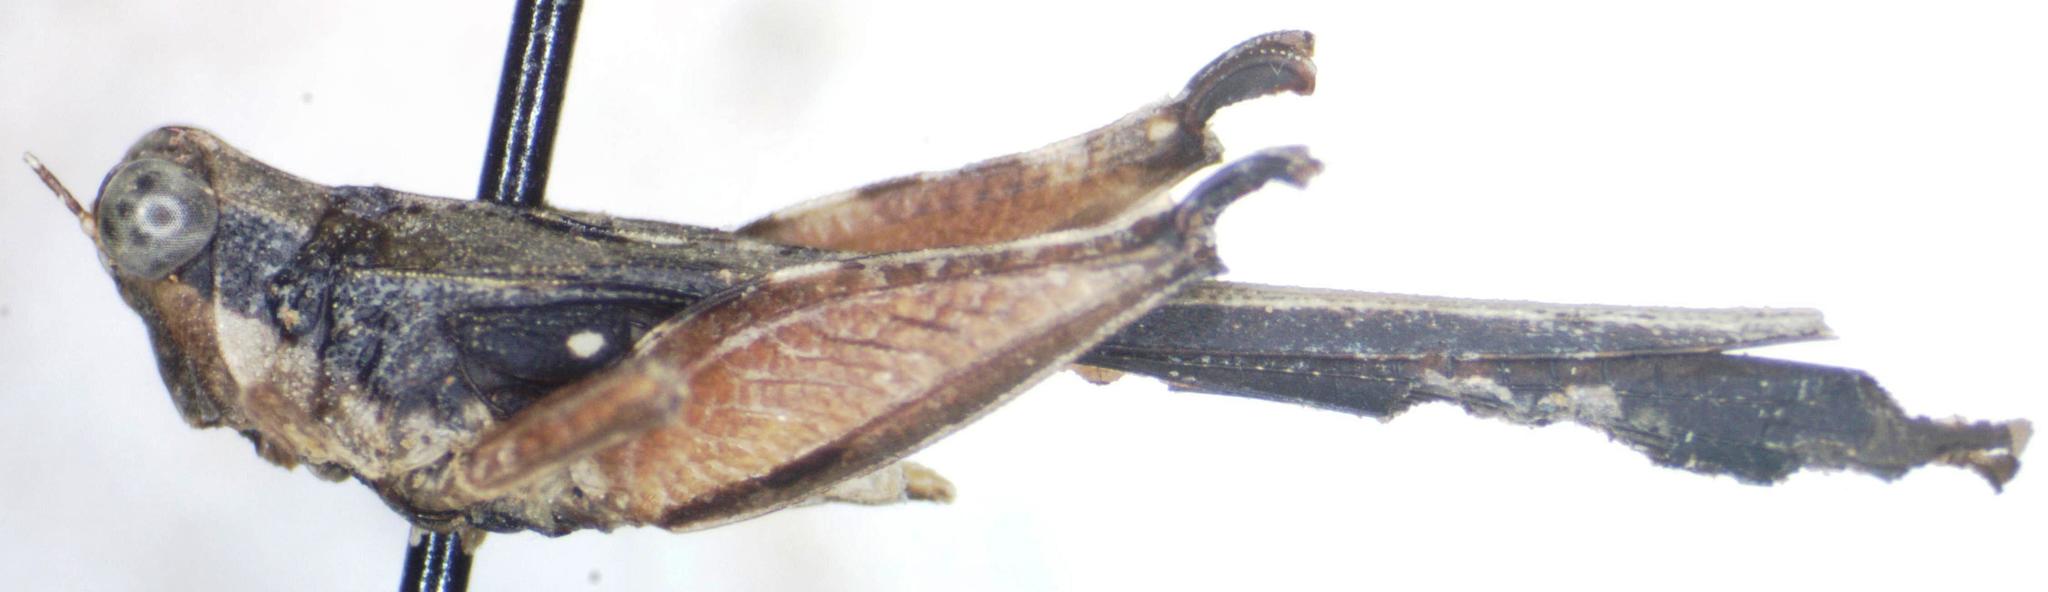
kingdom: Animalia
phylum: Arthropoda
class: Insecta
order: Orthoptera
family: Tetrigidae
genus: Scaria
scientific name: Scaria fasciata
